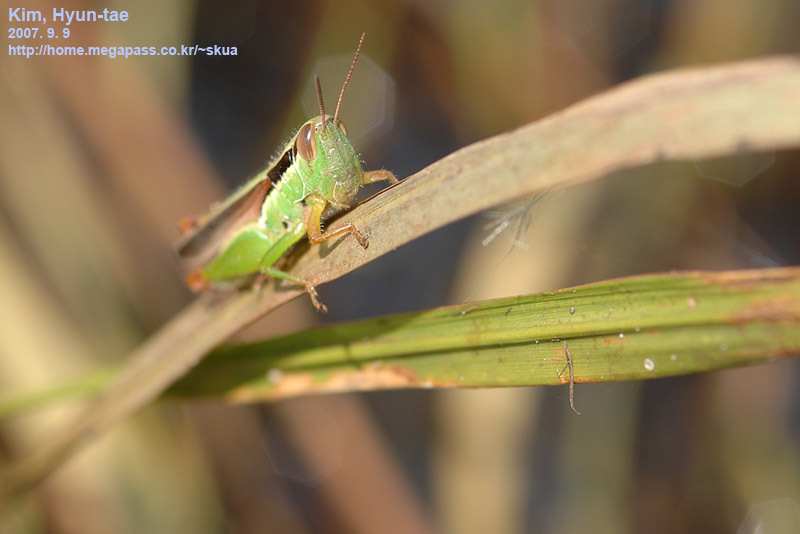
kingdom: Animalia
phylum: Arthropoda
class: Insecta
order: Orthoptera
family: Acrididae
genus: Oxya
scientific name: Oxya chinensis
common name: Small rice grasshopper
